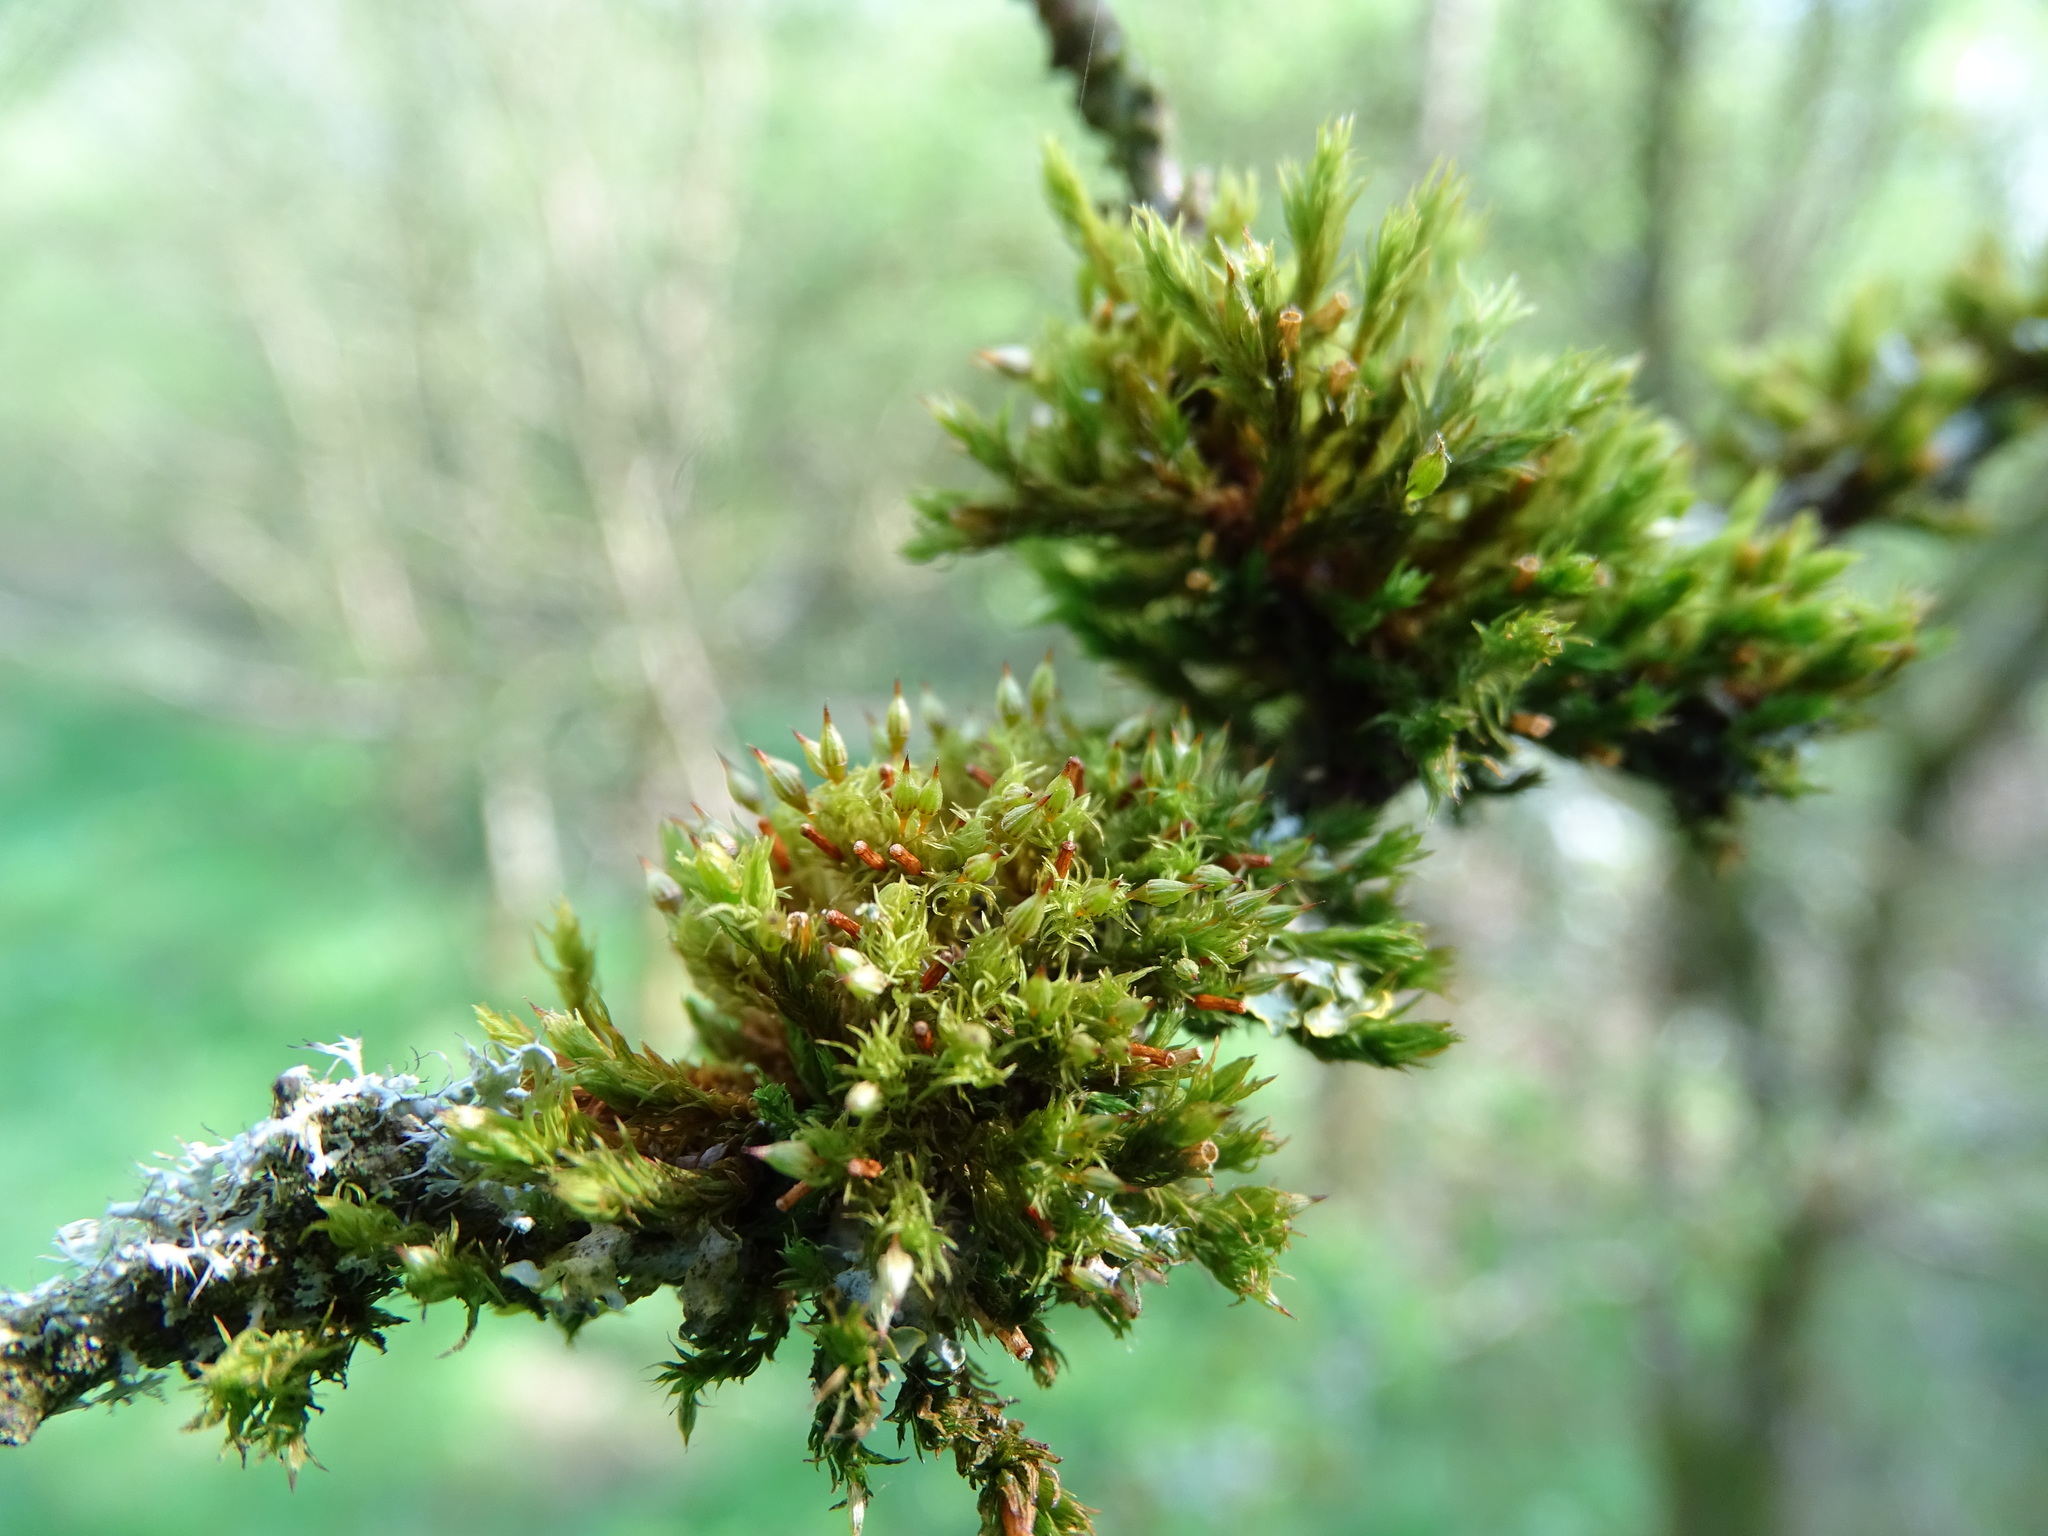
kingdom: Plantae
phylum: Bryophyta
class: Bryopsida
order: Orthotrichales
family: Orthotrichaceae
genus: Orthotrichum
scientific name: Orthotrichum pulchellum
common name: Elegant bristle-moss
